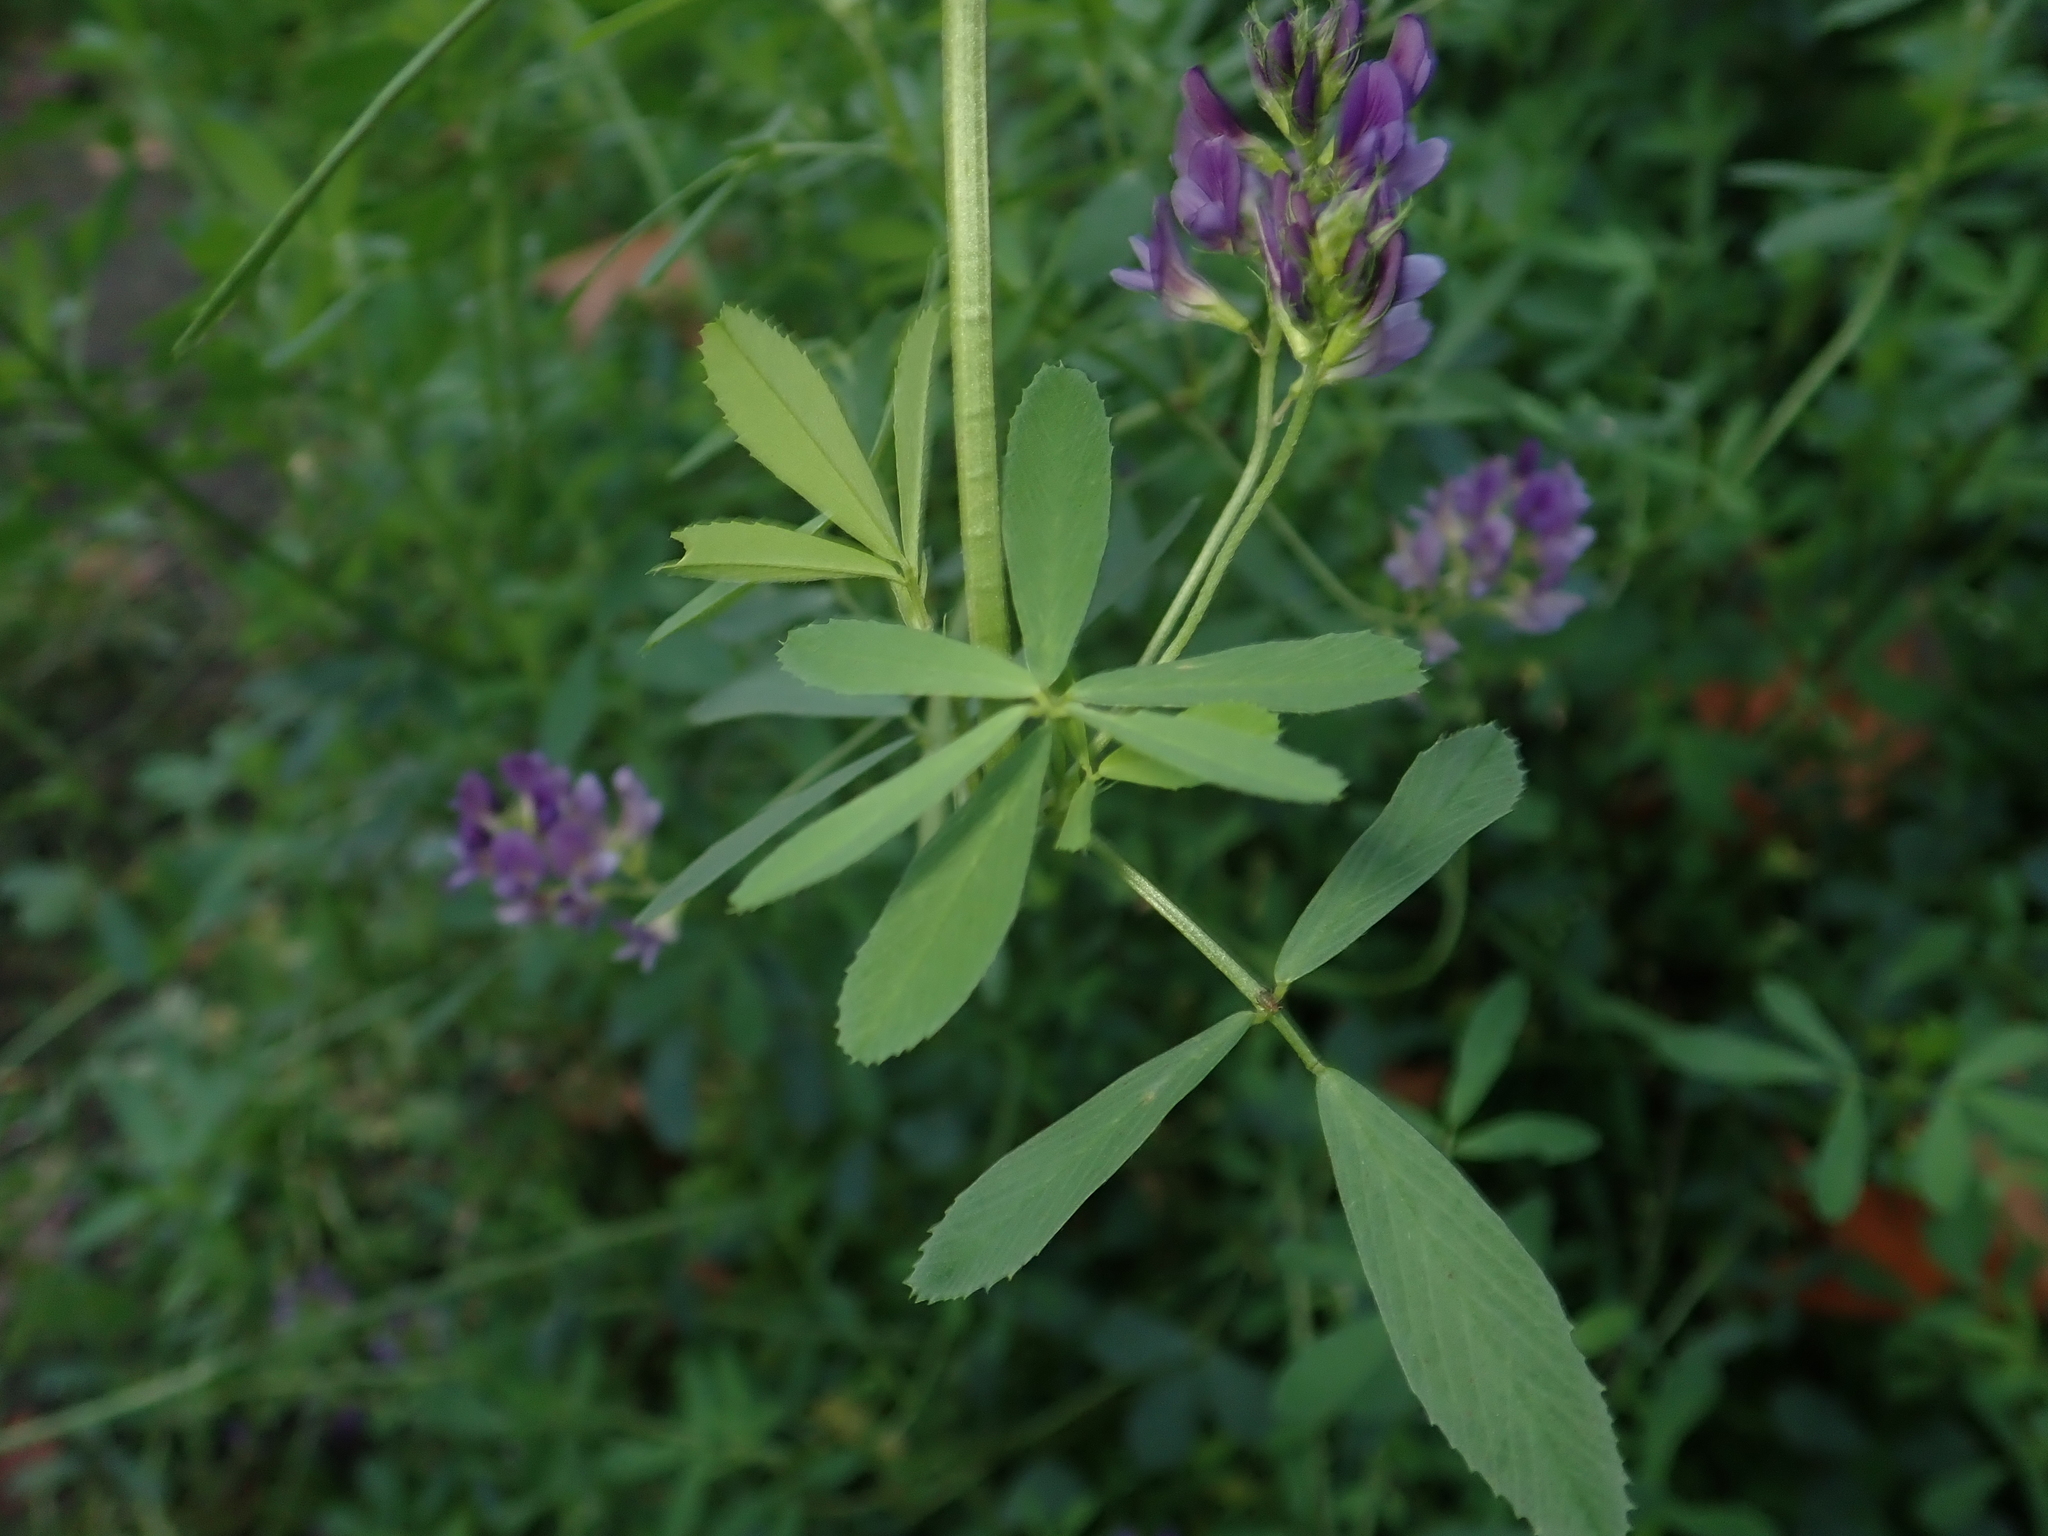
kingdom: Plantae
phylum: Tracheophyta
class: Magnoliopsida
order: Fabales
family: Fabaceae
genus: Medicago
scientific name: Medicago sativa
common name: Alfalfa
